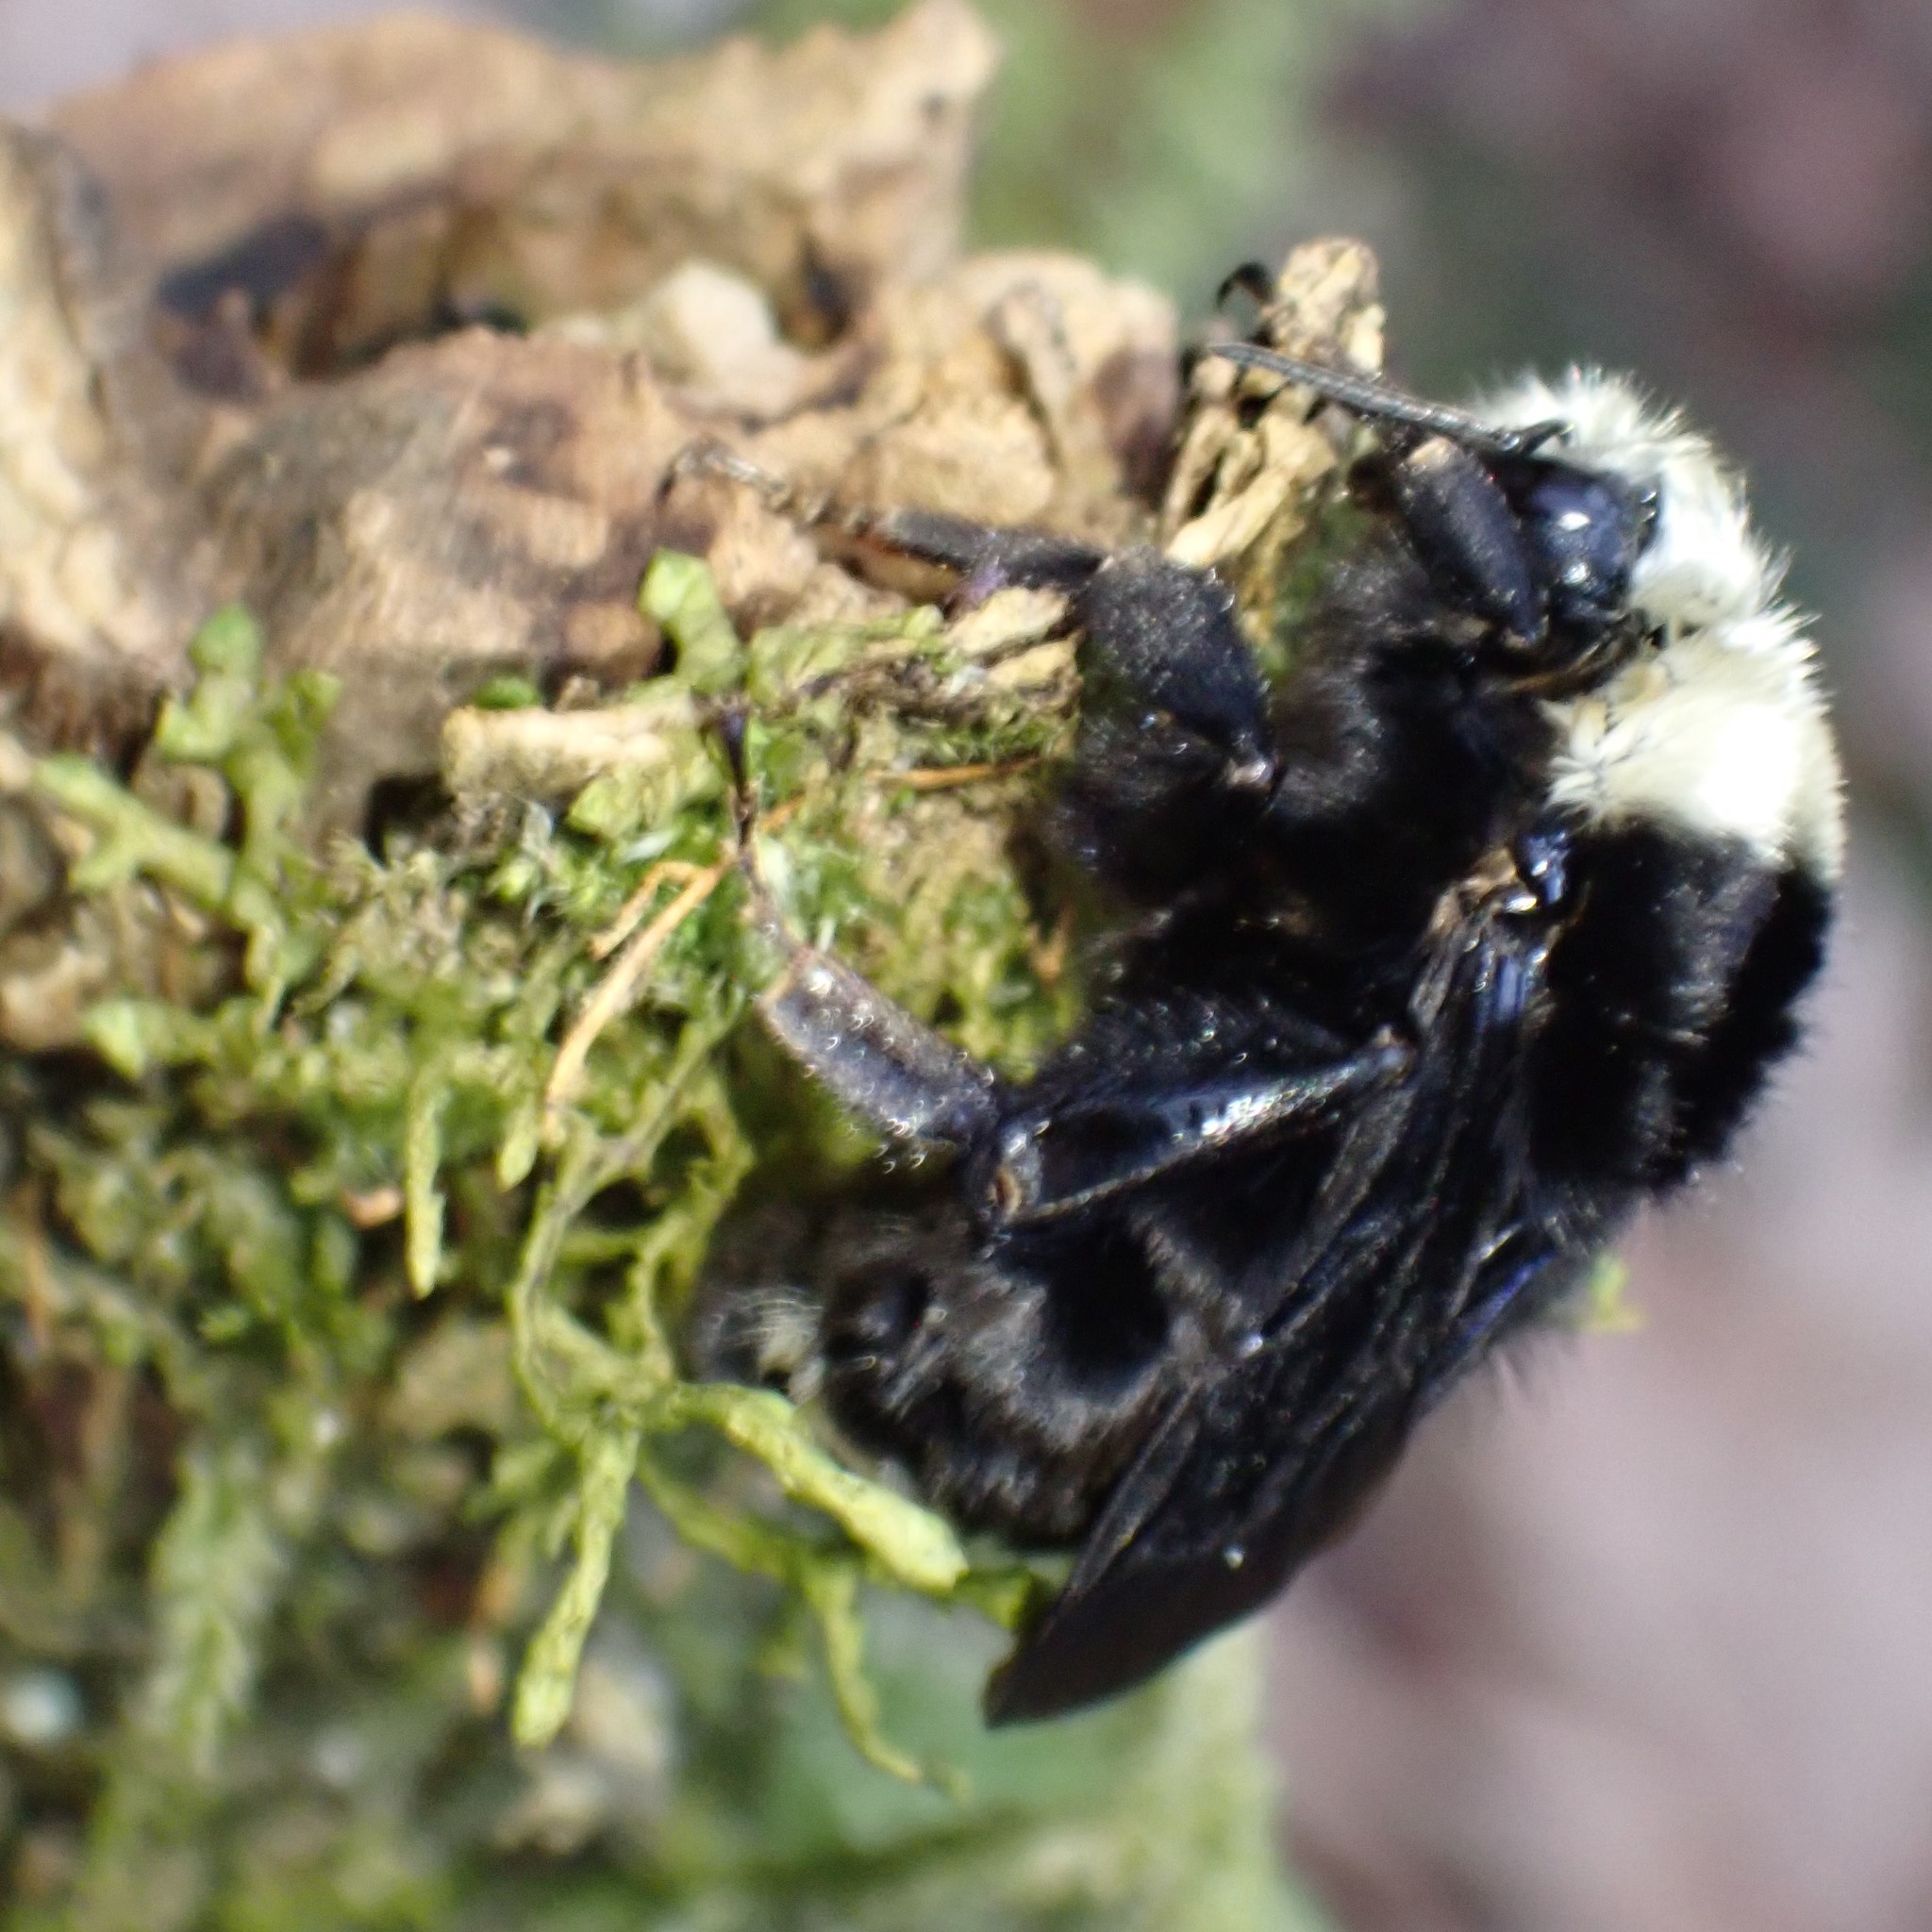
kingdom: Animalia
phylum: Arthropoda
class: Insecta
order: Hymenoptera
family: Apidae
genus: Bombus
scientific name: Bombus vosnesenskii
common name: Vosnesensky bumble bee
